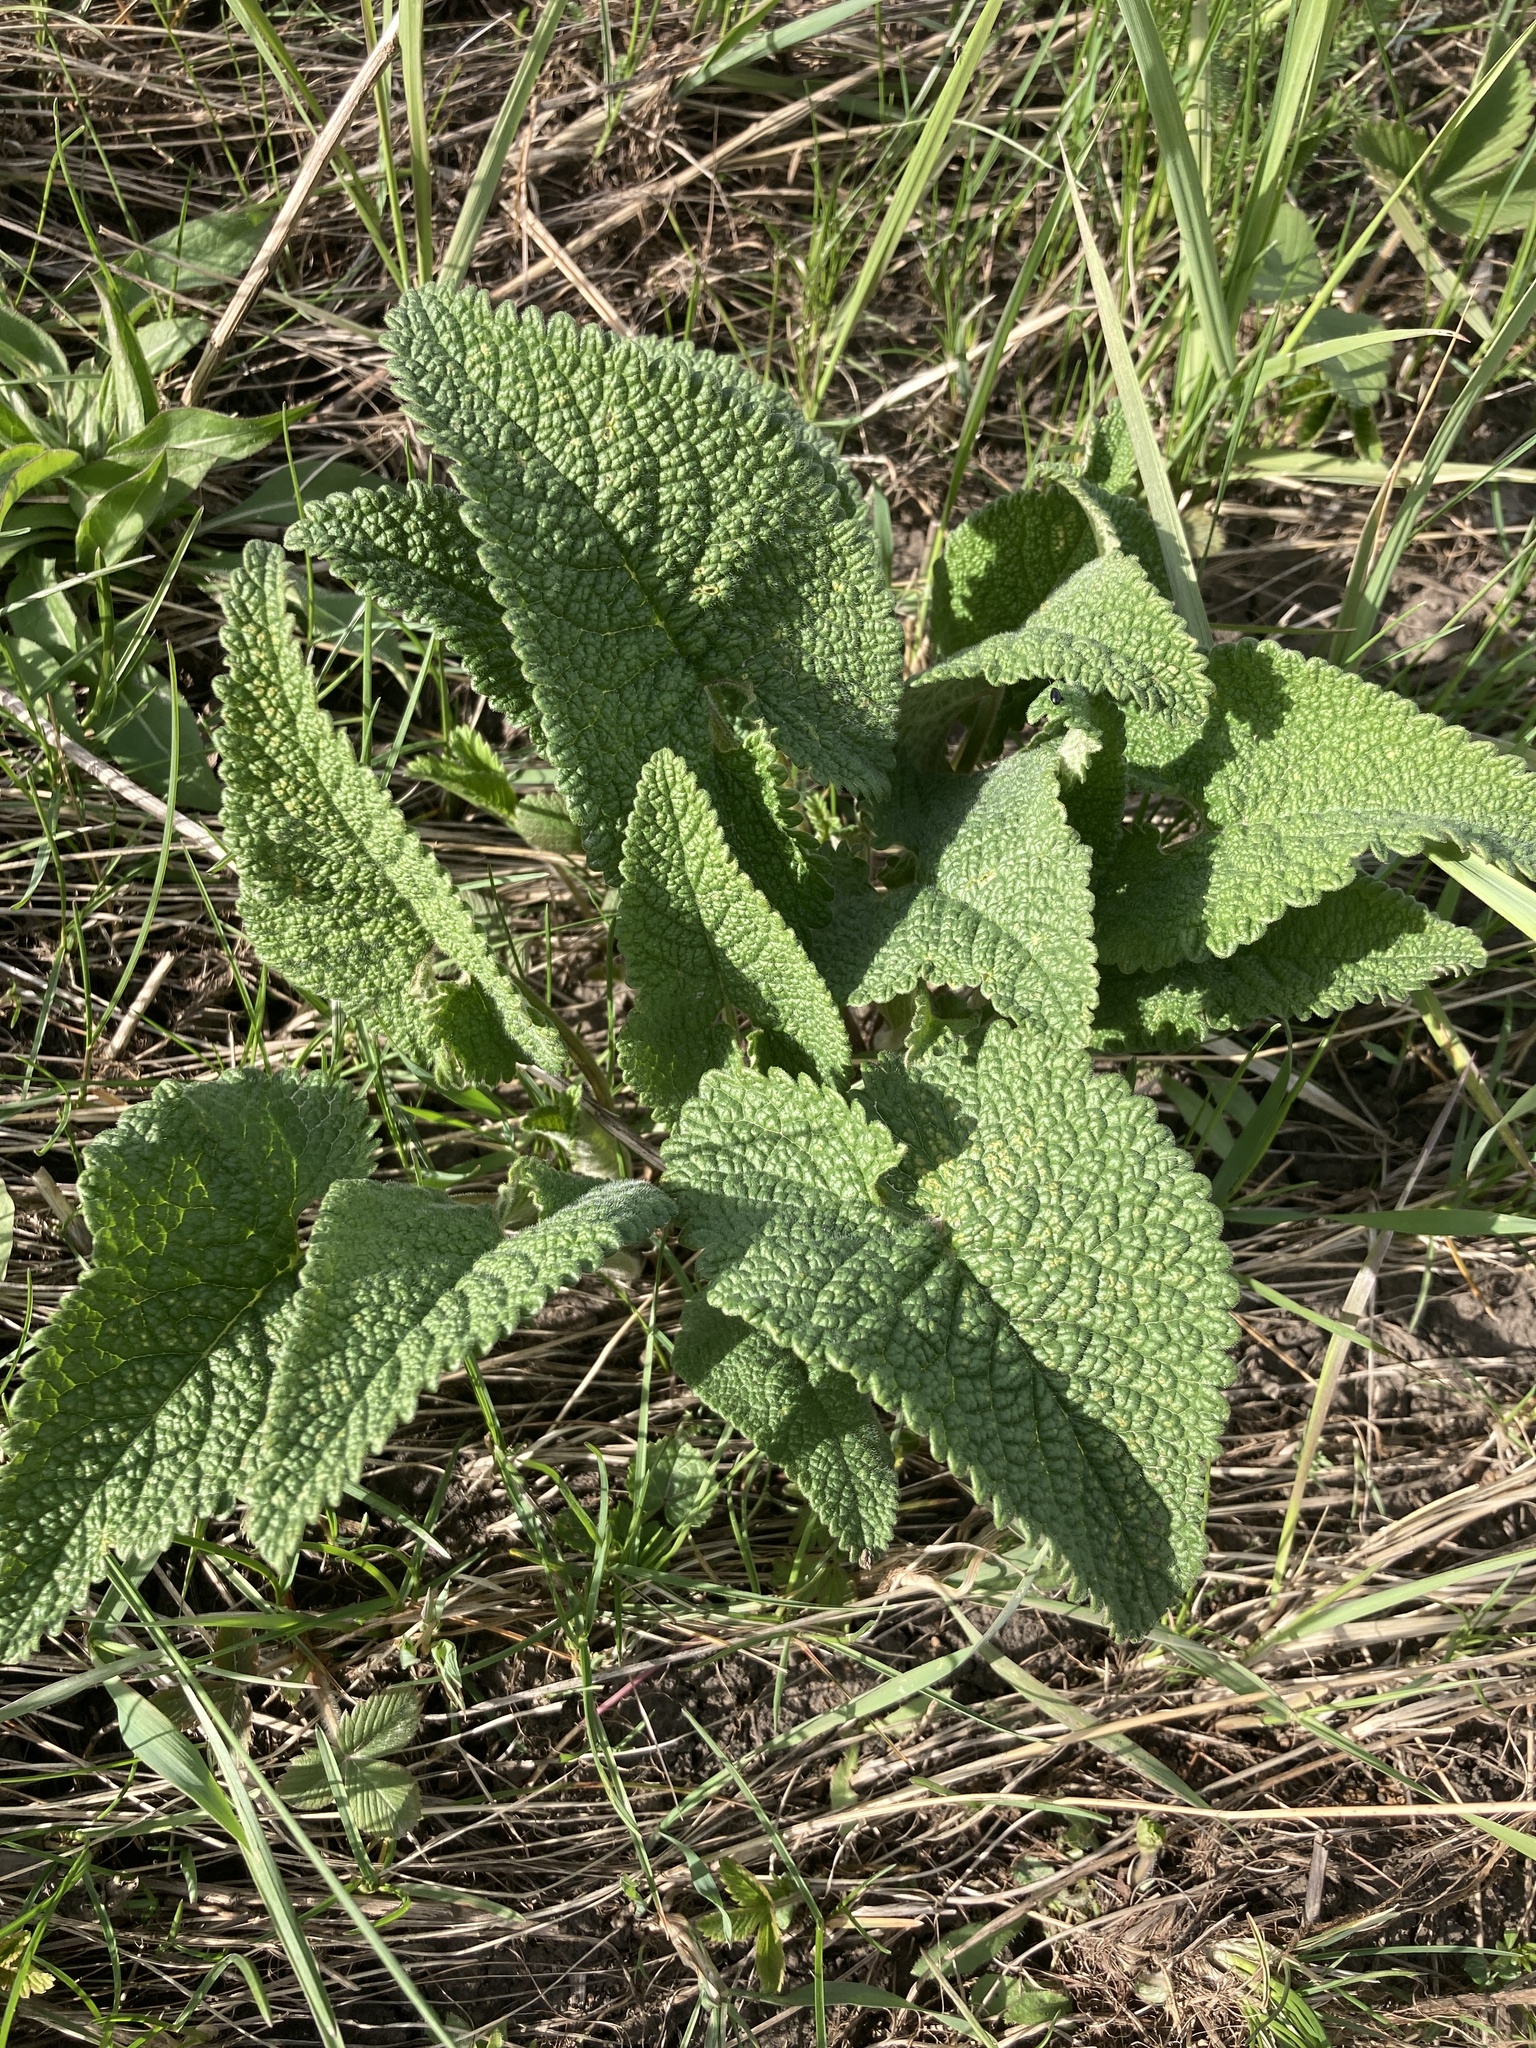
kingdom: Plantae
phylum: Tracheophyta
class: Magnoliopsida
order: Lamiales
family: Lamiaceae
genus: Phlomoides
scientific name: Phlomoides tuberosa
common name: Tuberous jerusalem sage
